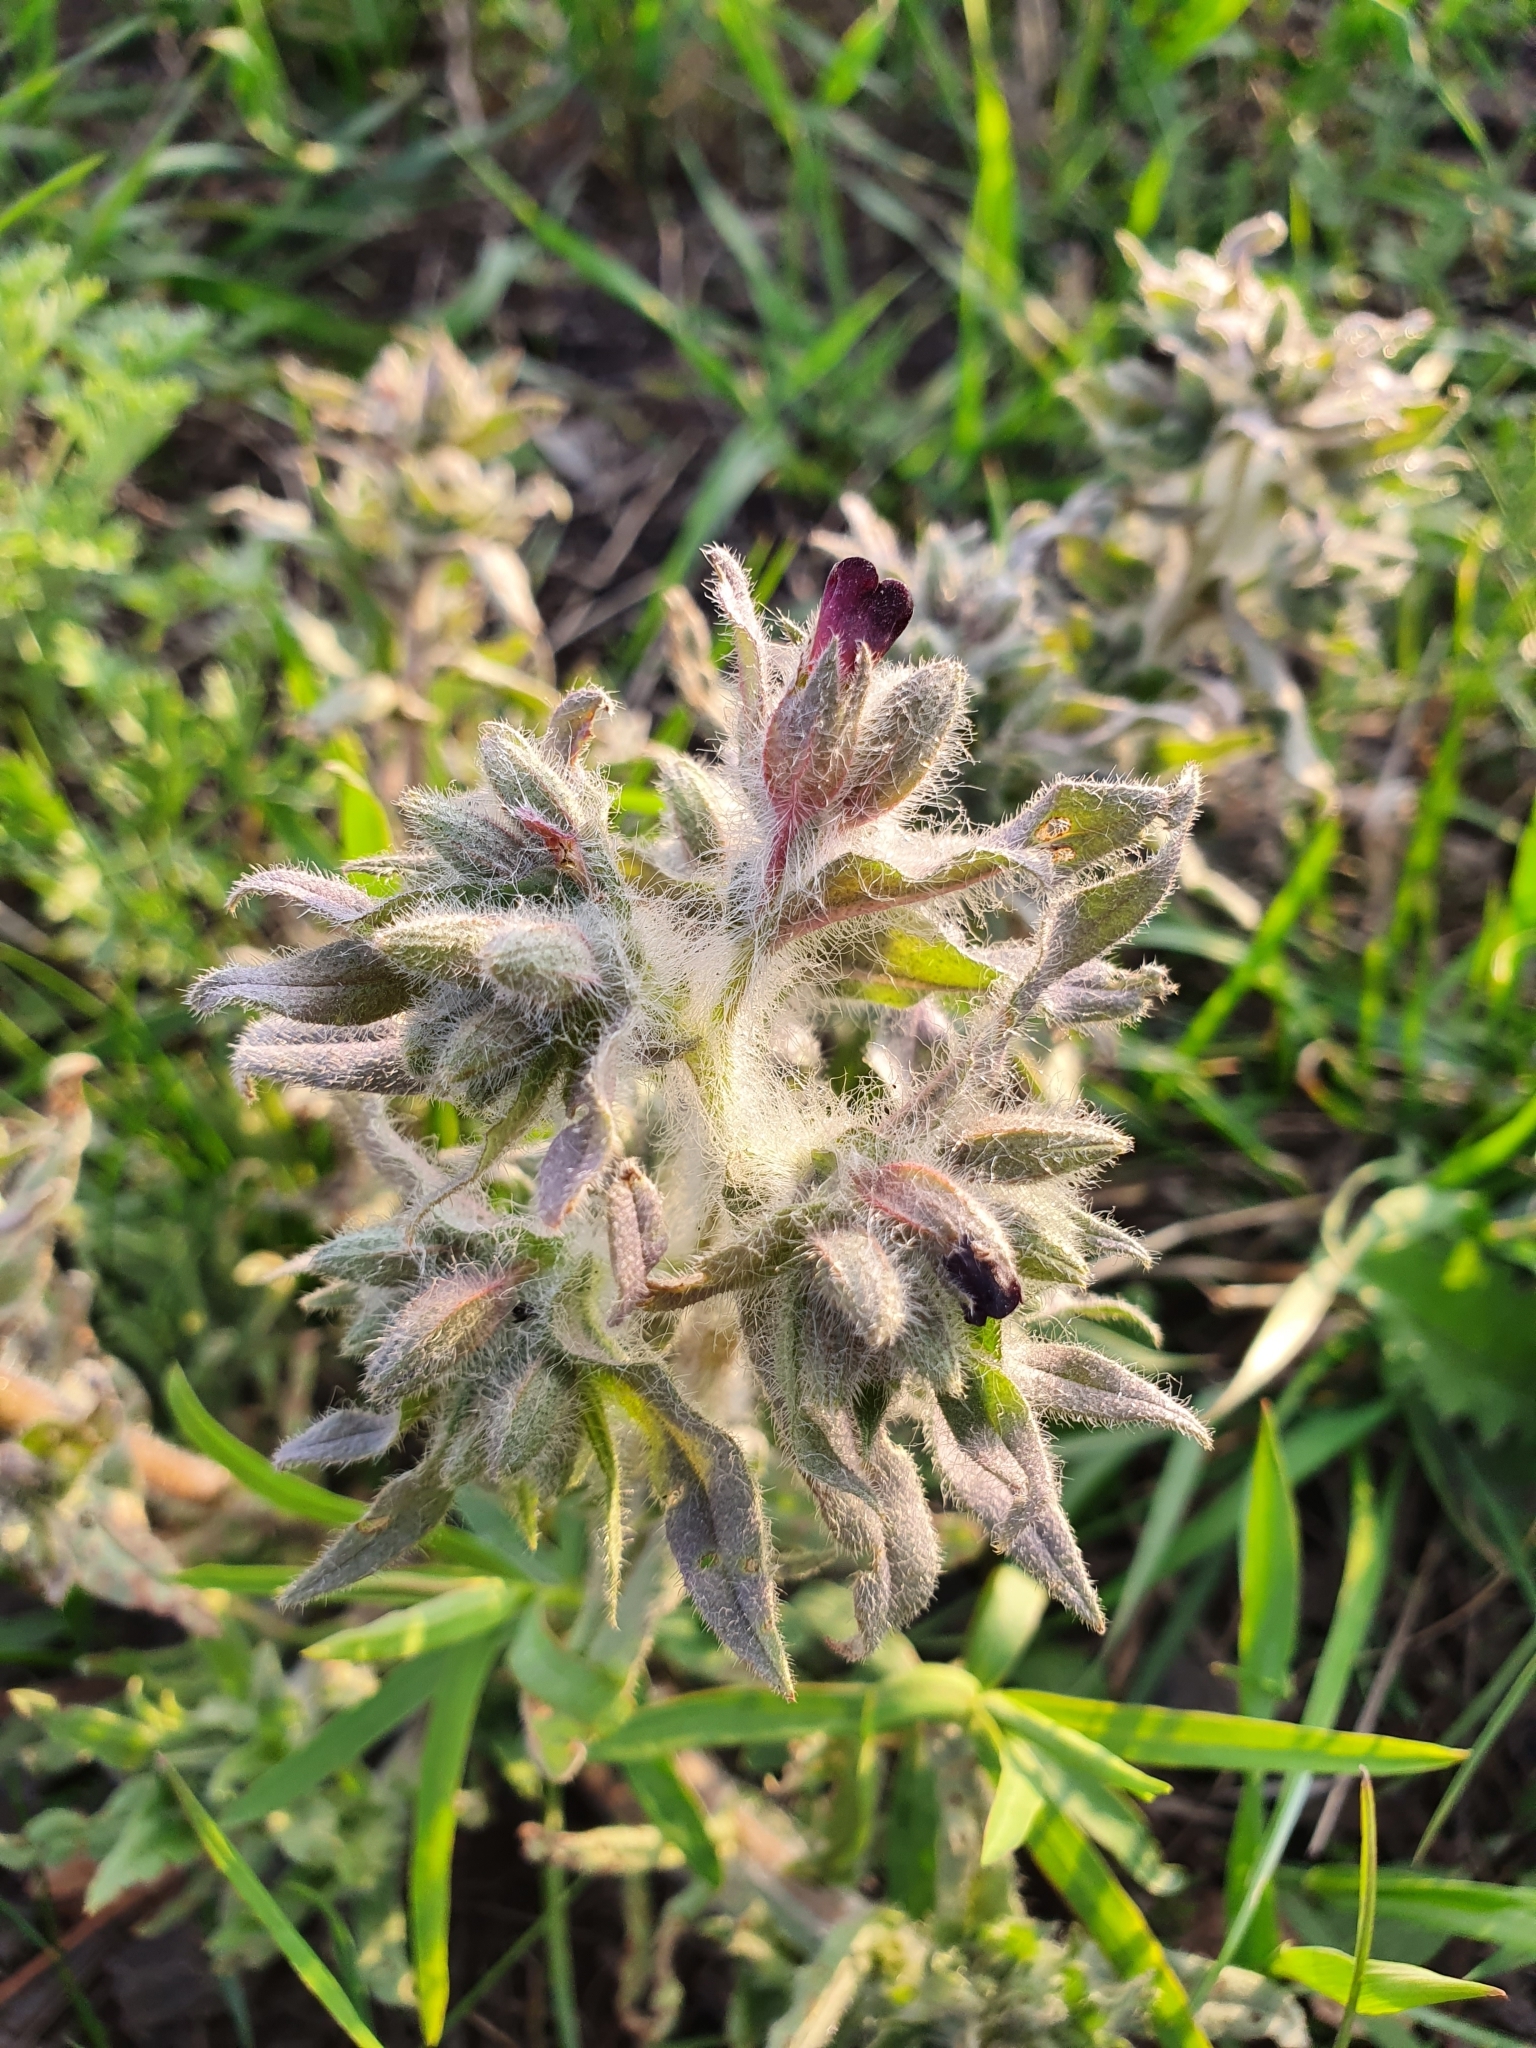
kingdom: Plantae
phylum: Tracheophyta
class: Magnoliopsida
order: Boraginales
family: Boraginaceae
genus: Nonea
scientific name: Nonea pulla
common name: Brown nonea
